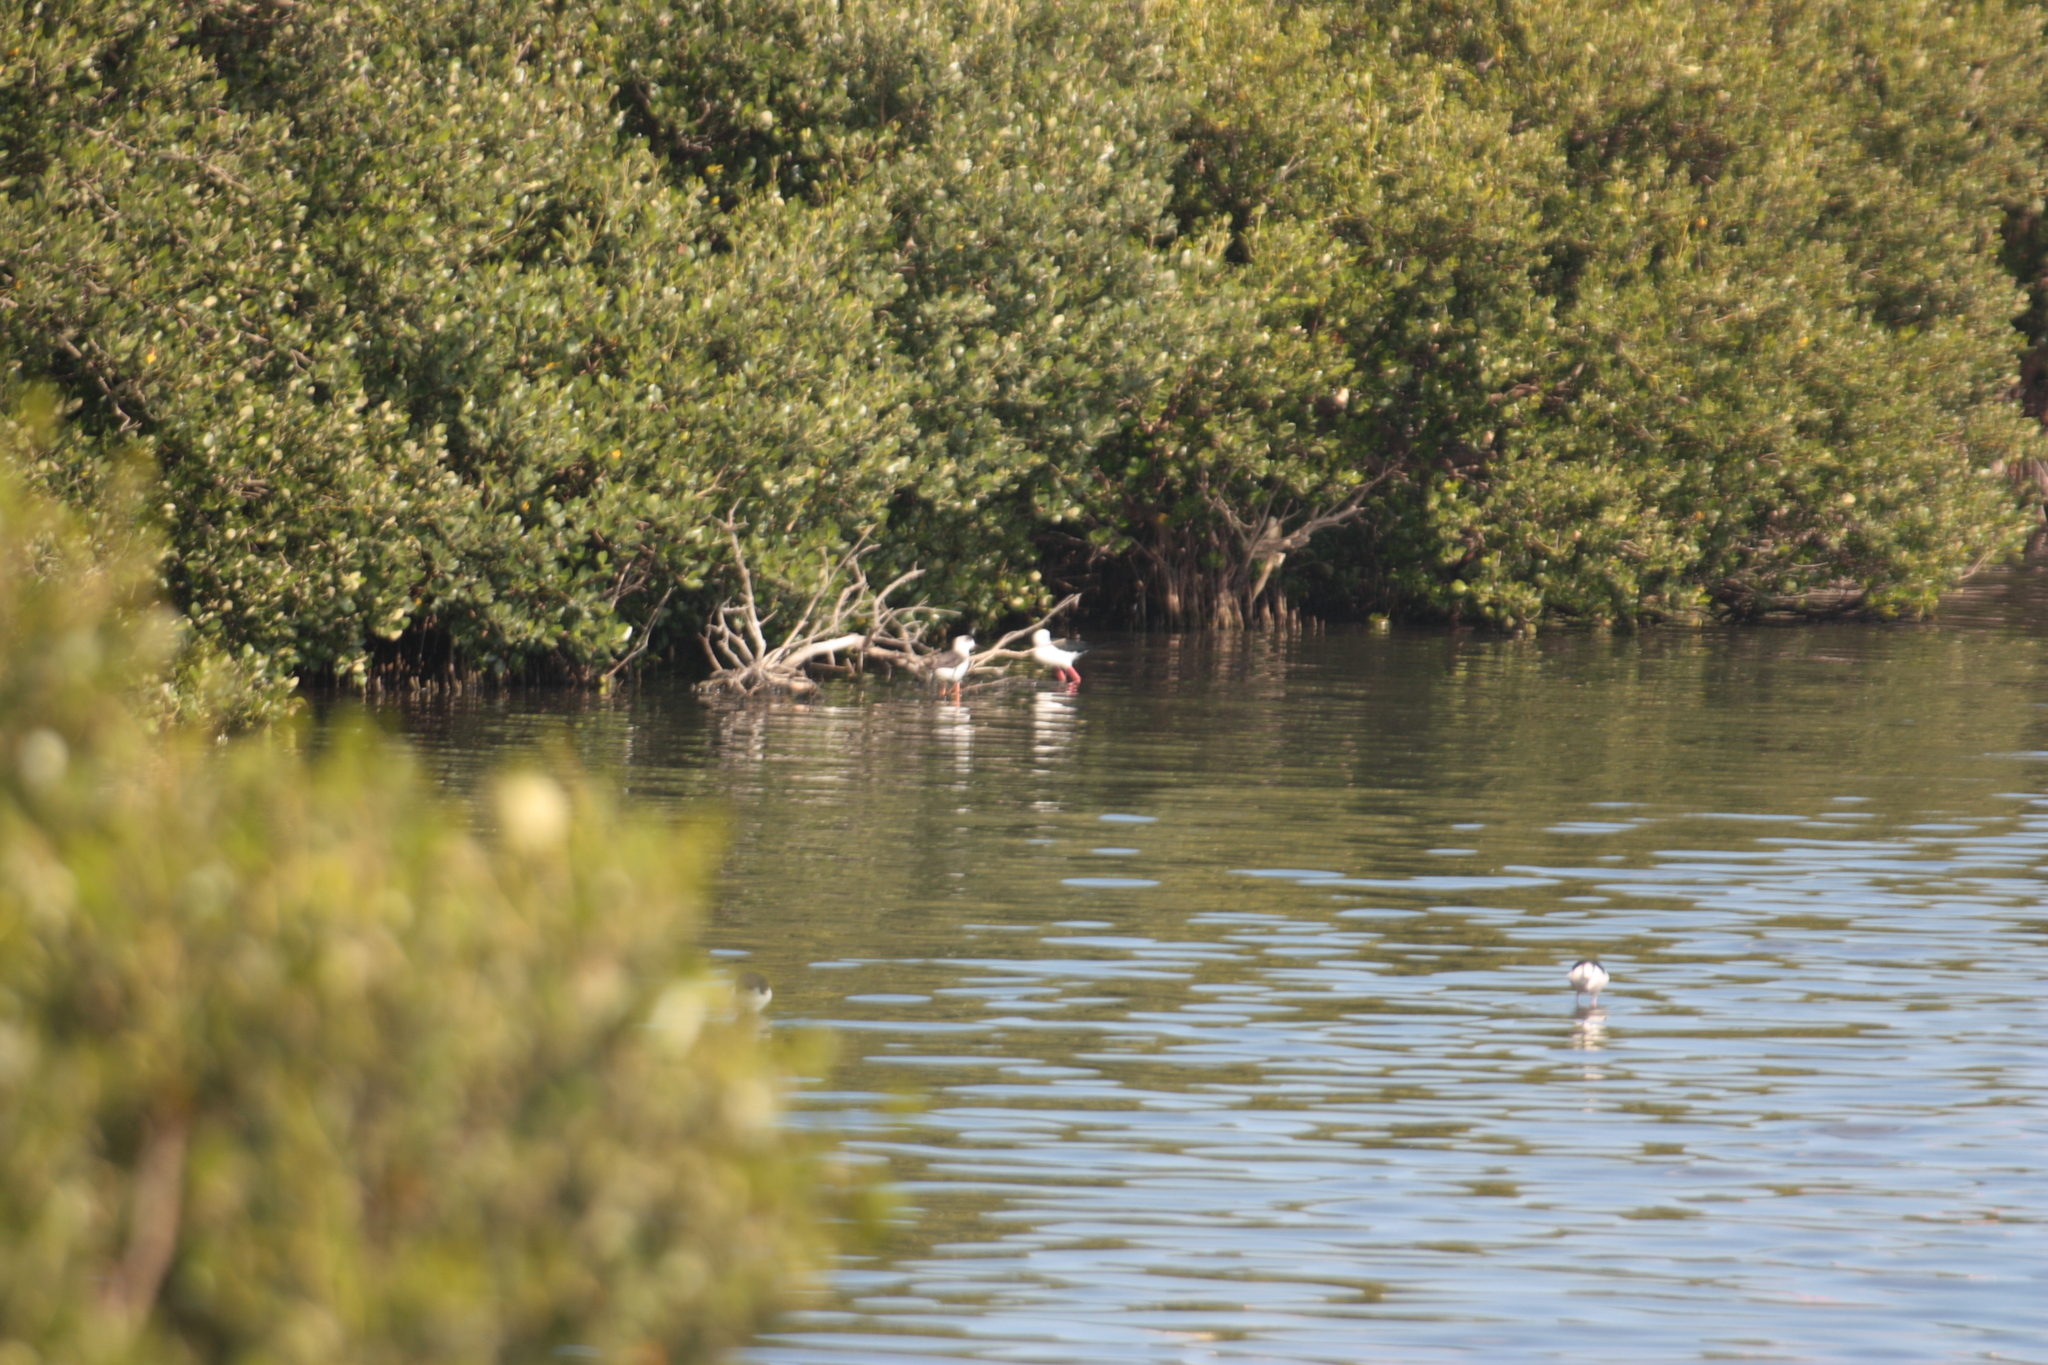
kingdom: Animalia
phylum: Chordata
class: Aves
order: Charadriiformes
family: Recurvirostridae
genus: Himantopus
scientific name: Himantopus himantopus
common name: Black-winged stilt
